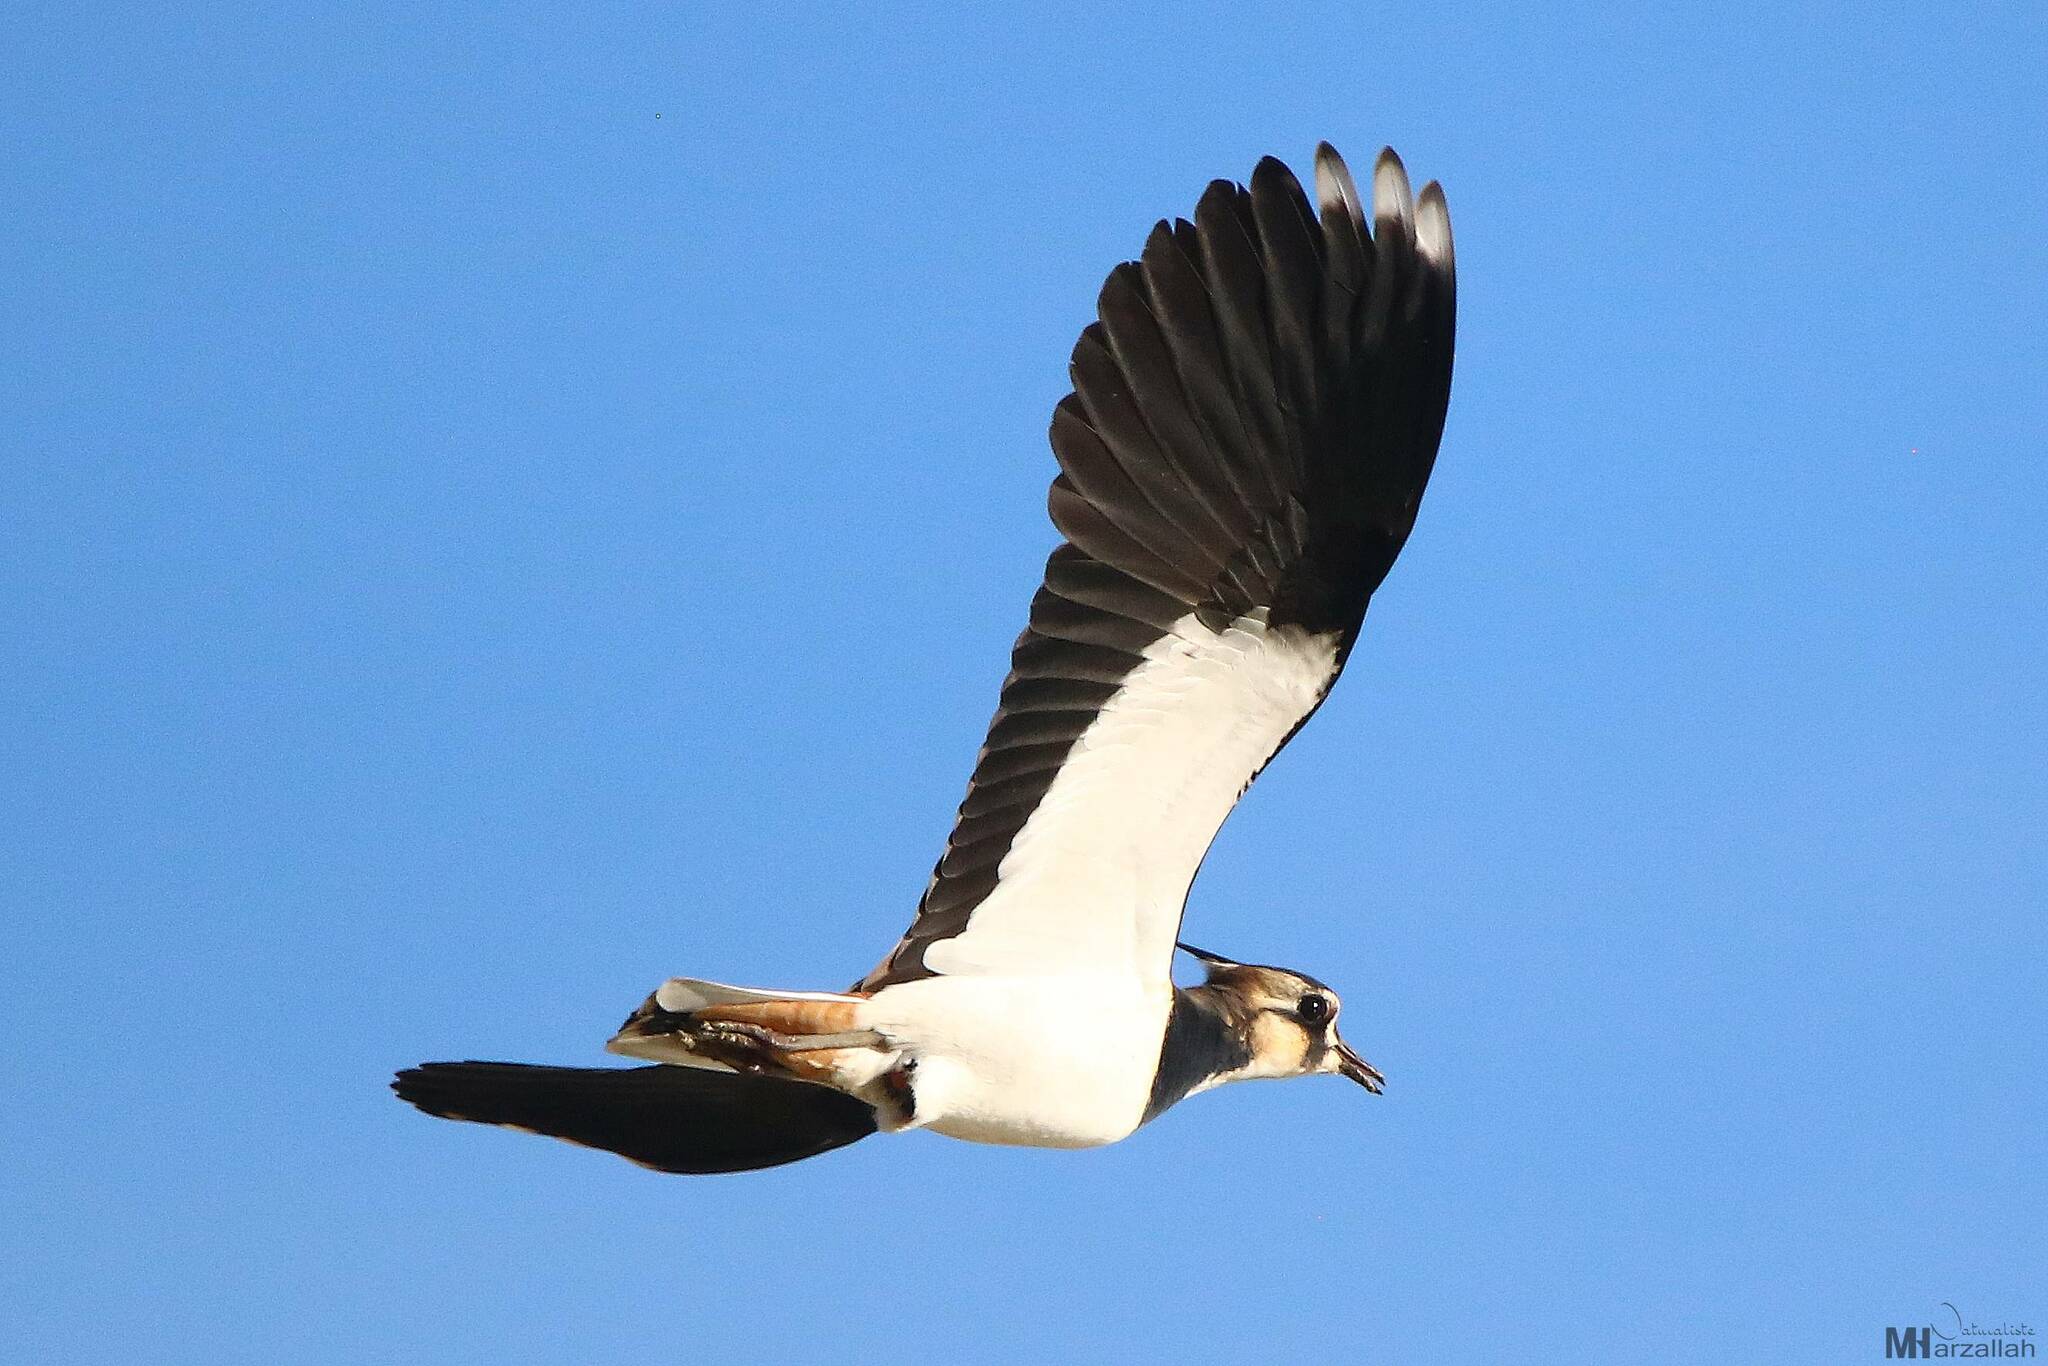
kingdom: Animalia
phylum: Chordata
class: Aves
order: Charadriiformes
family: Charadriidae
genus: Vanellus
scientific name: Vanellus vanellus
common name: Northern lapwing
